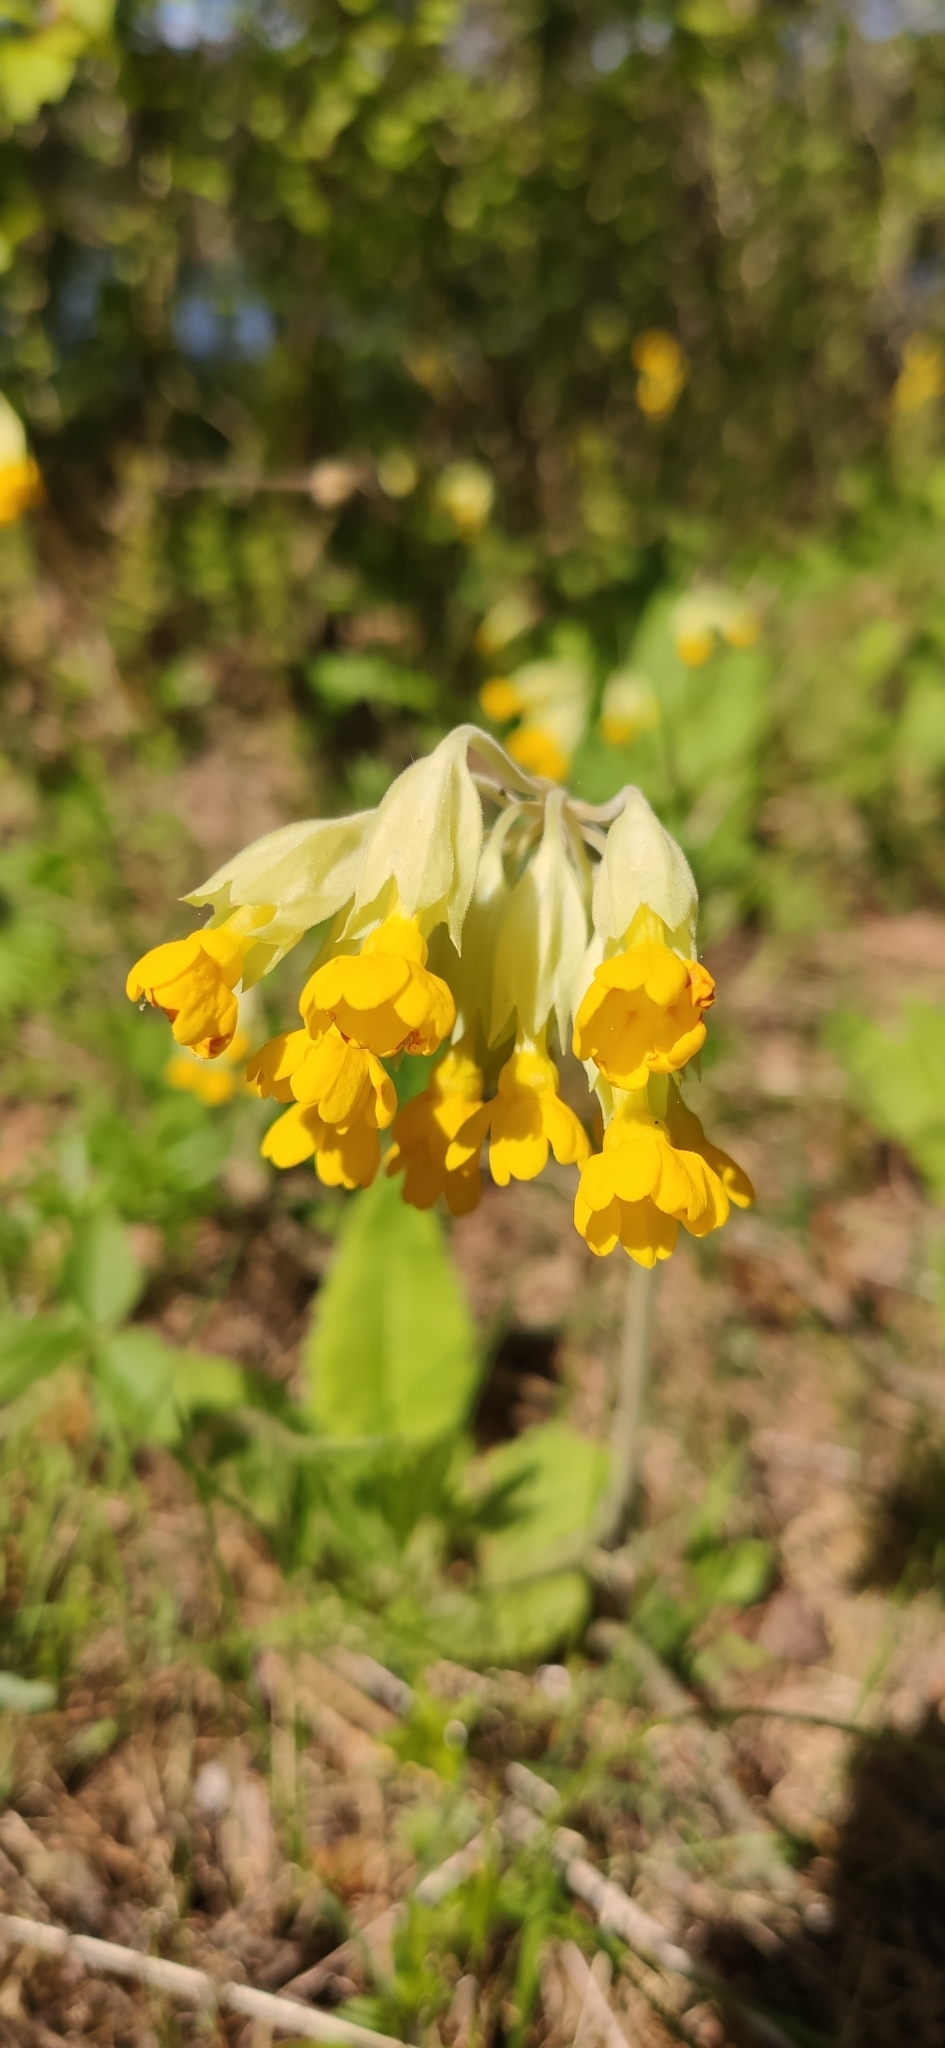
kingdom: Plantae
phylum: Tracheophyta
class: Magnoliopsida
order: Ericales
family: Primulaceae
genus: Primula
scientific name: Primula veris
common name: Cowslip
